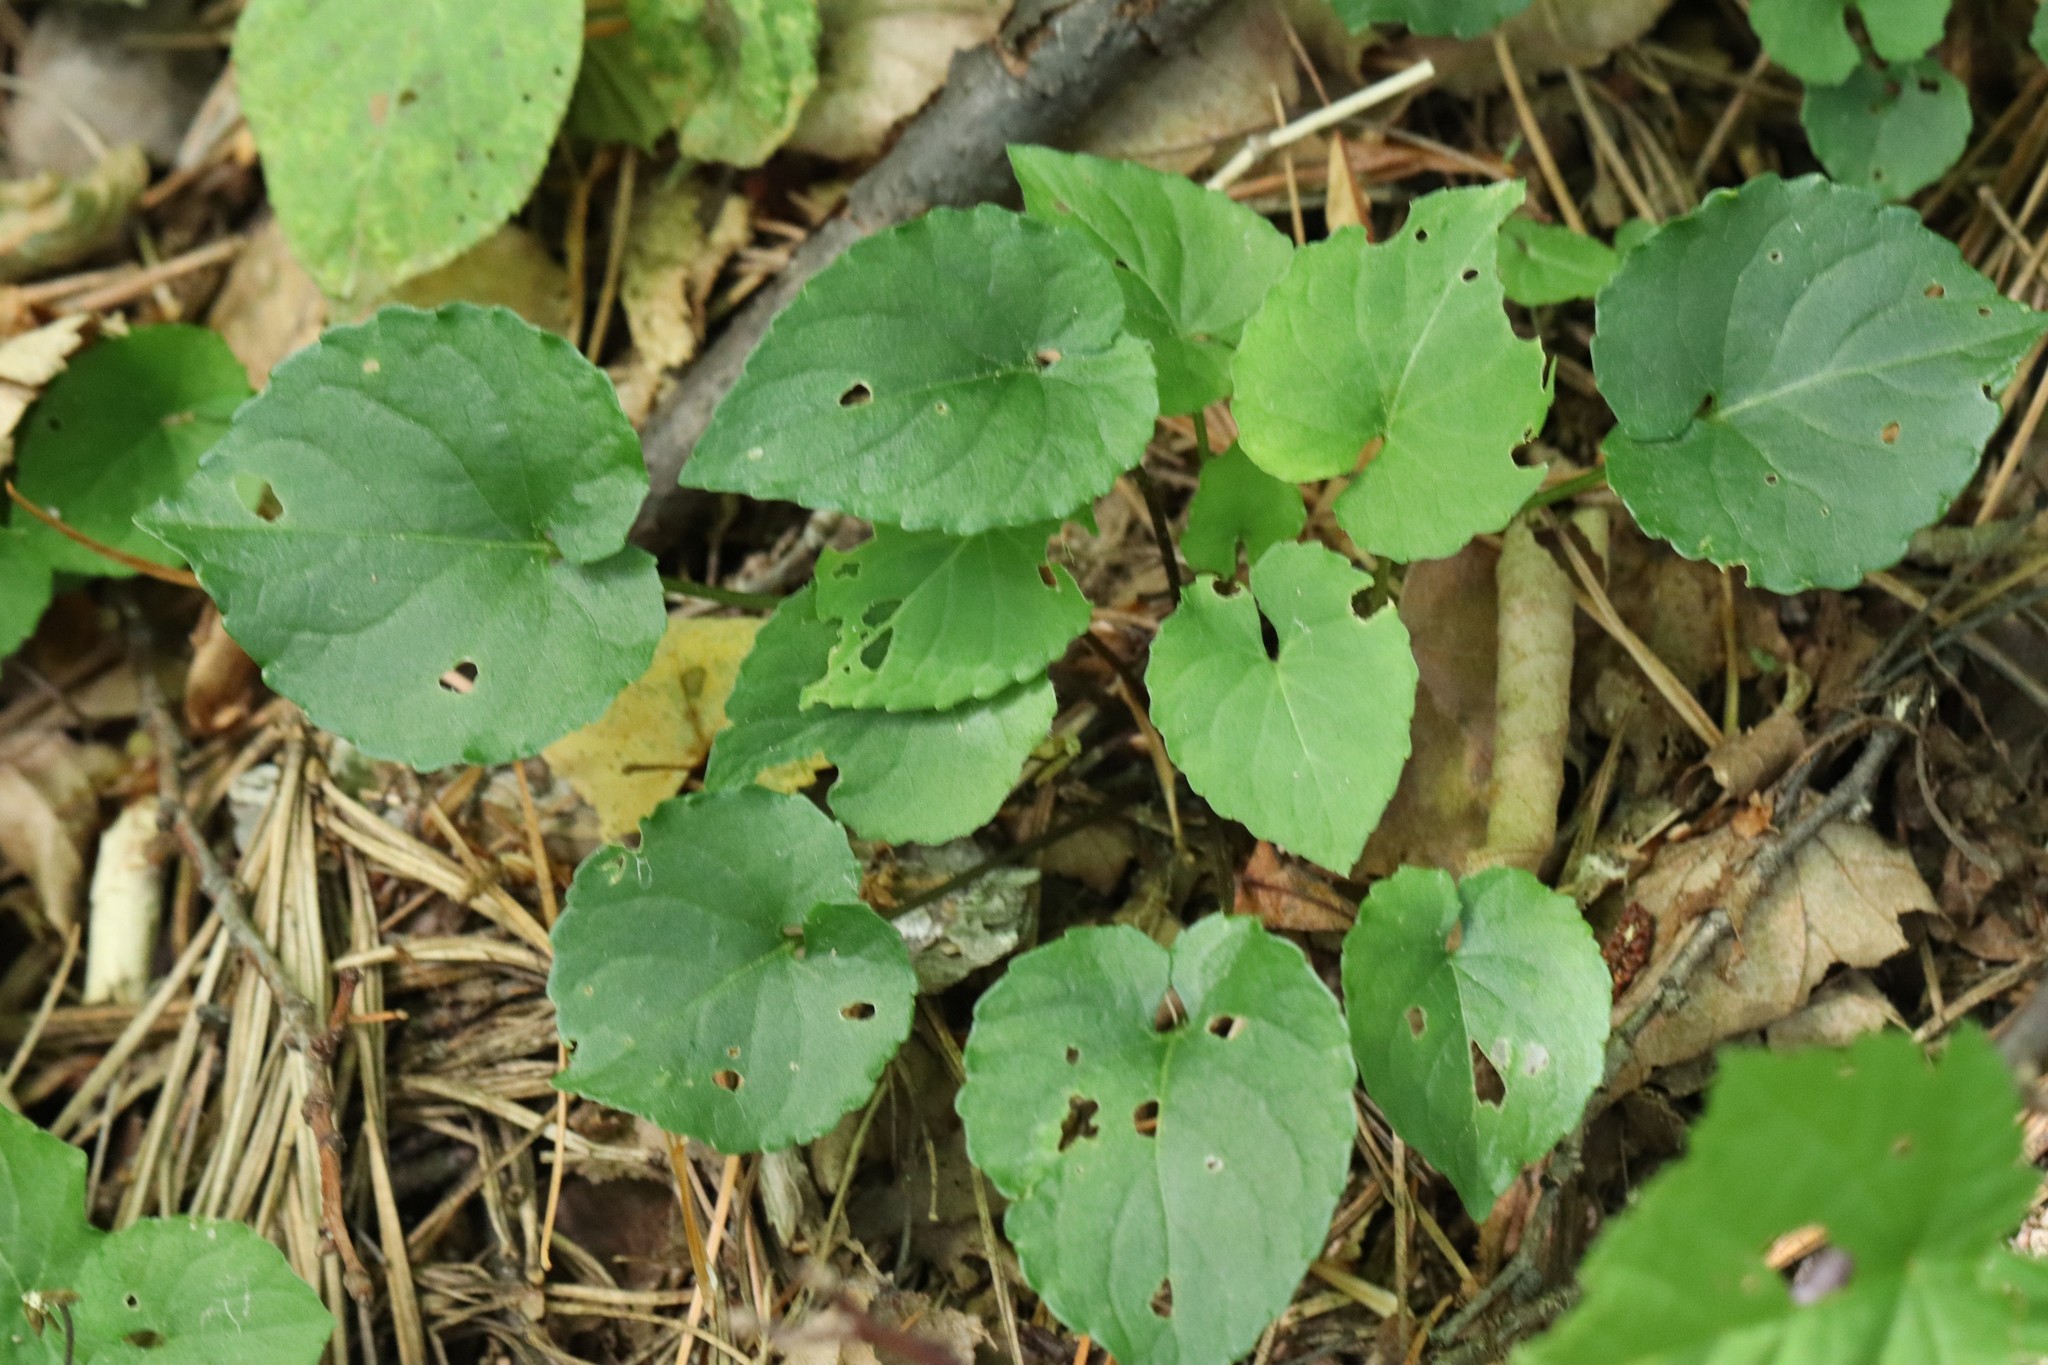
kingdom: Plantae
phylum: Tracheophyta
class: Magnoliopsida
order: Malpighiales
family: Violaceae
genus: Viola
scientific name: Viola selkirkii
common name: Selkirk's violet
